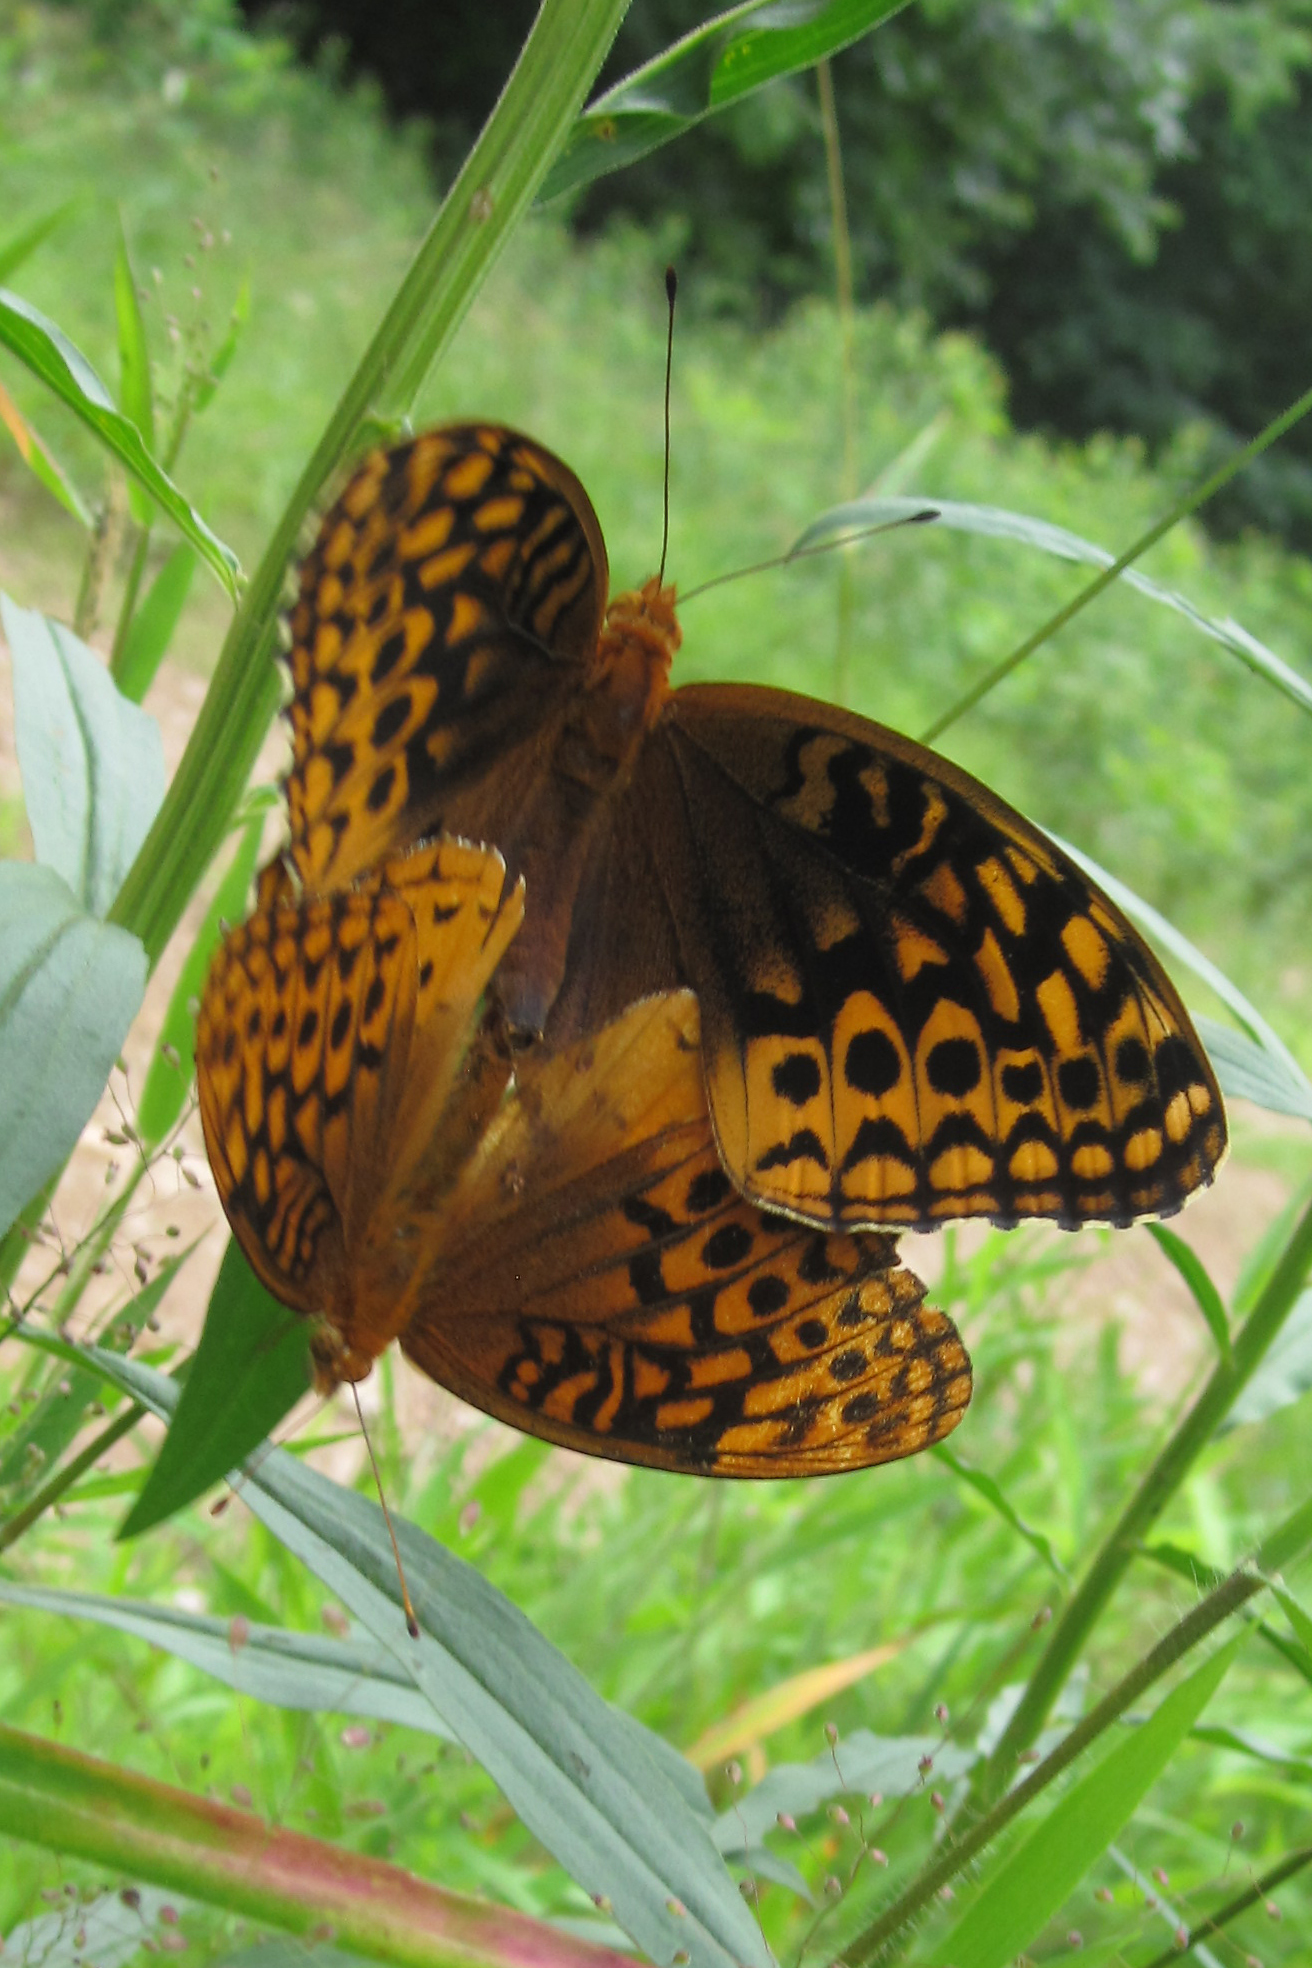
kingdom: Animalia
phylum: Arthropoda
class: Insecta
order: Lepidoptera
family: Nymphalidae
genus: Speyeria
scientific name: Speyeria cybele
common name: Great spangled fritillary
